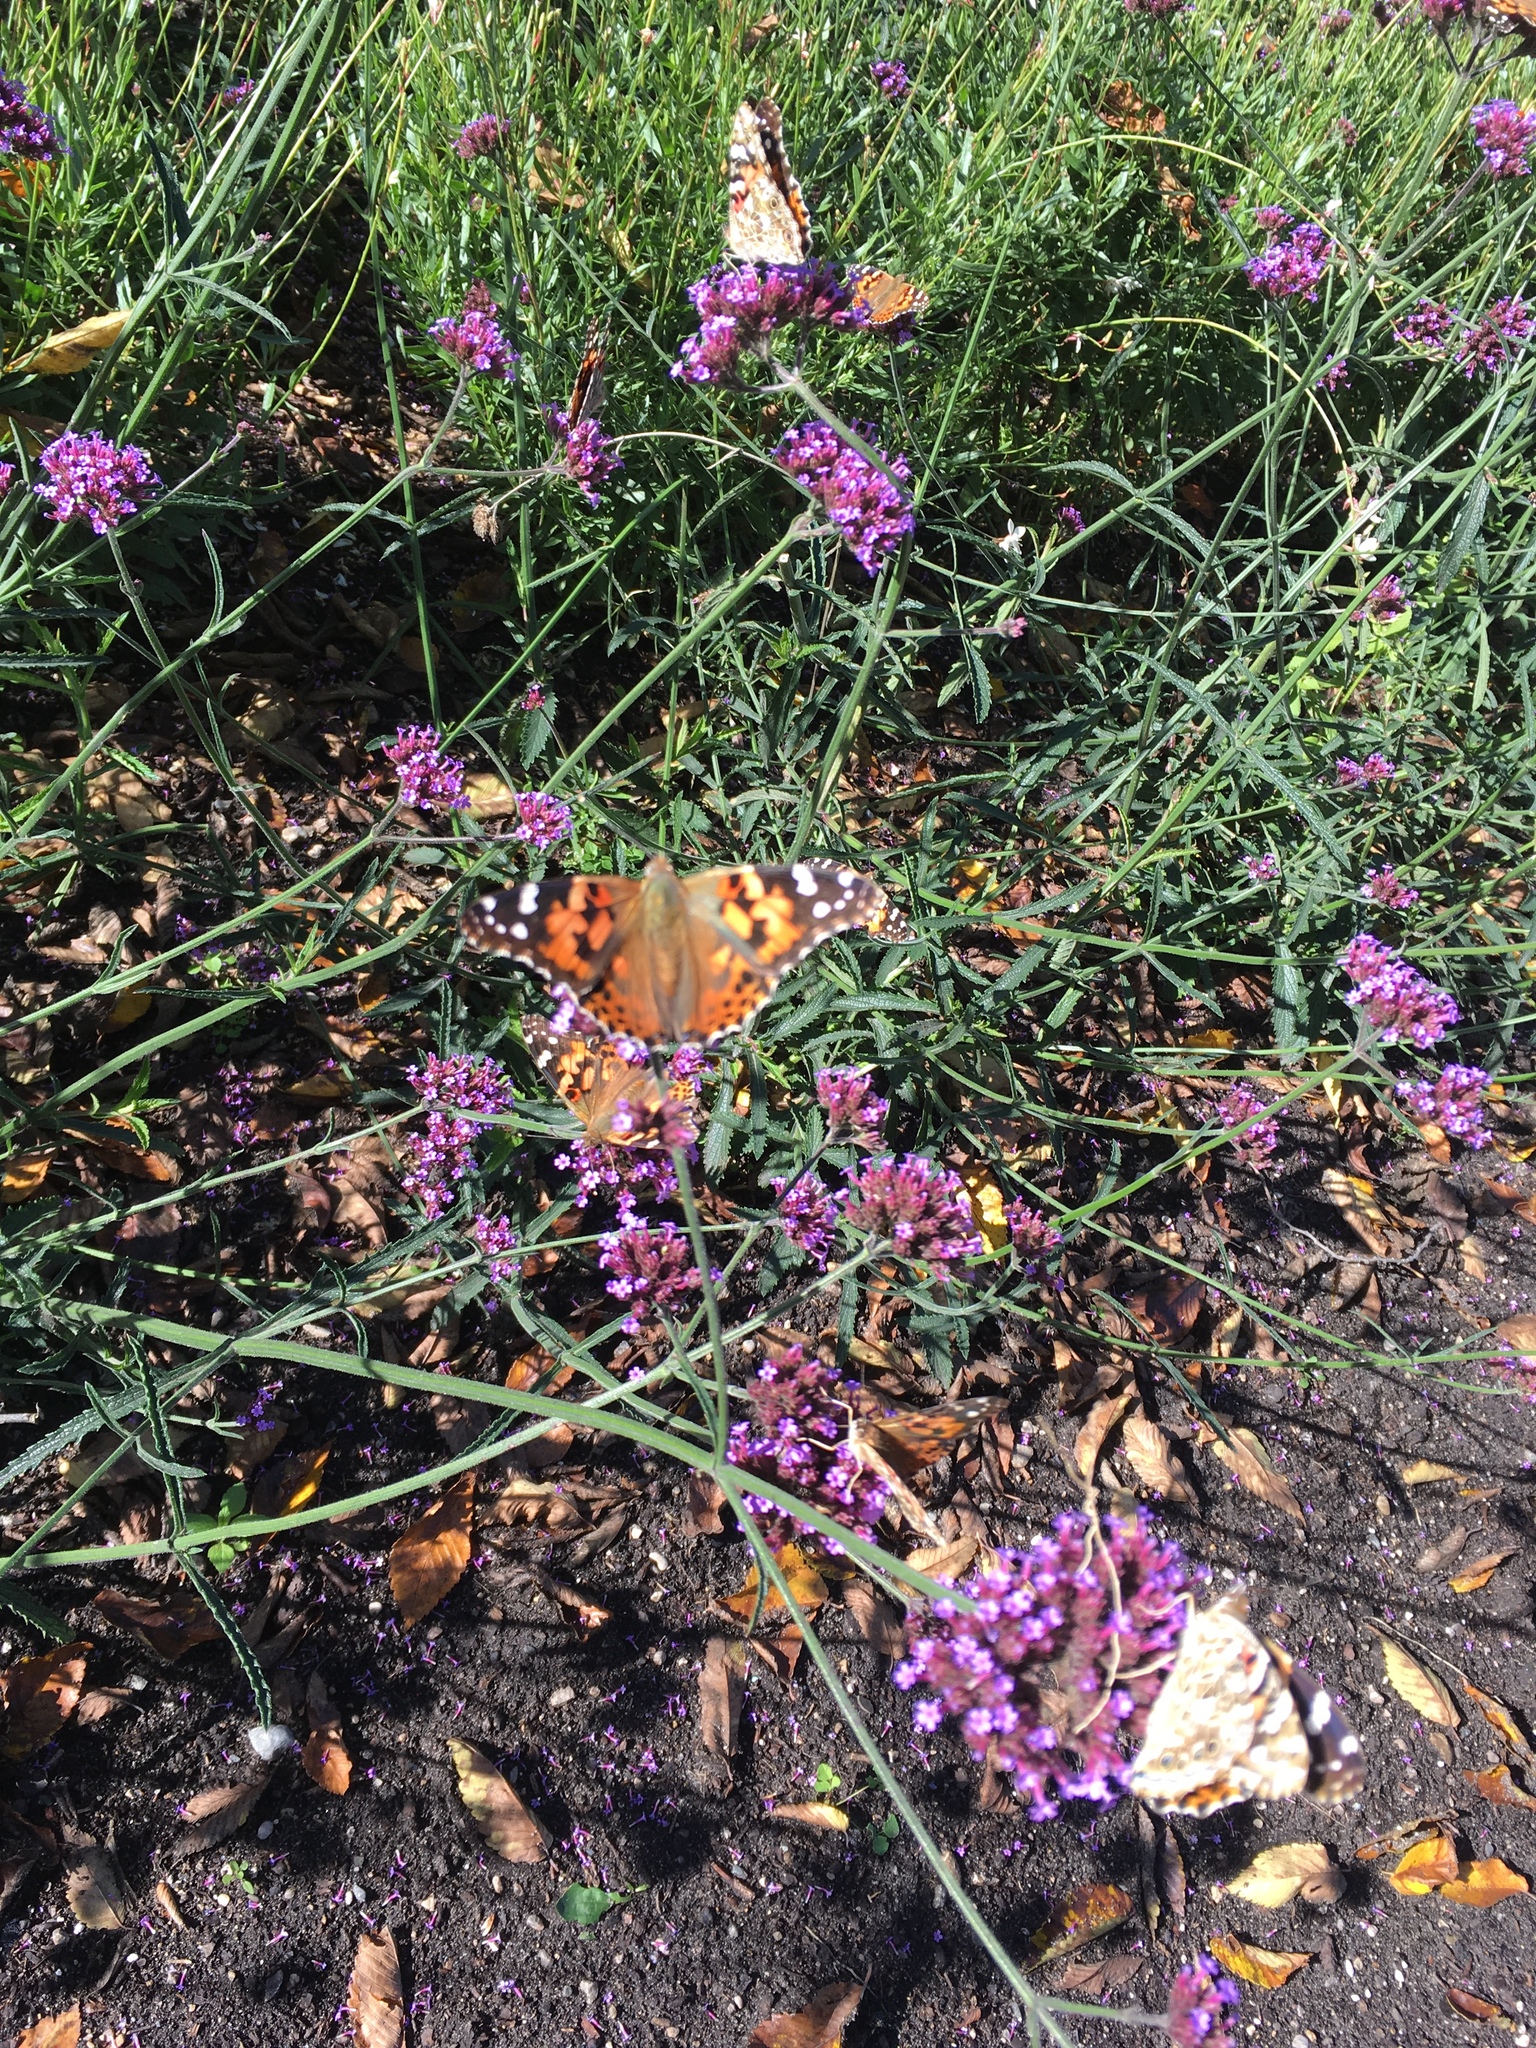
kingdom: Animalia
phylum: Arthropoda
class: Insecta
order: Lepidoptera
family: Nymphalidae
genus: Vanessa
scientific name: Vanessa cardui
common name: Painted lady
